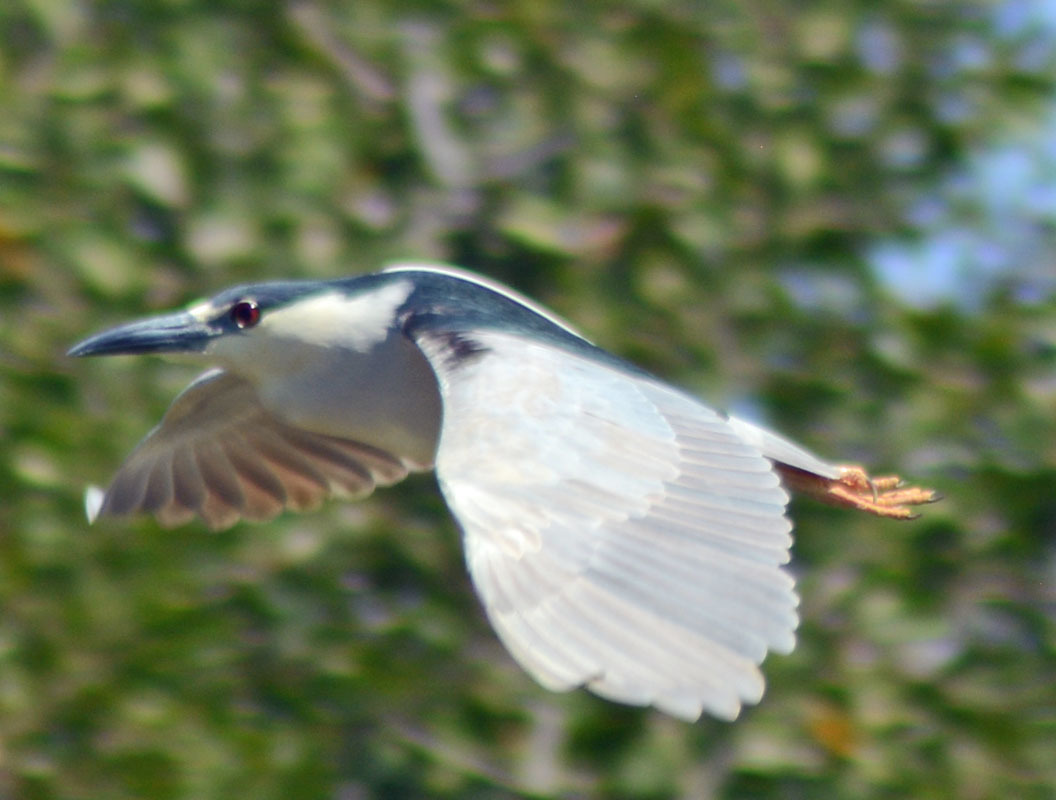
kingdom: Animalia
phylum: Chordata
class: Aves
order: Pelecaniformes
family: Ardeidae
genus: Nycticorax
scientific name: Nycticorax nycticorax
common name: Black-crowned night heron
